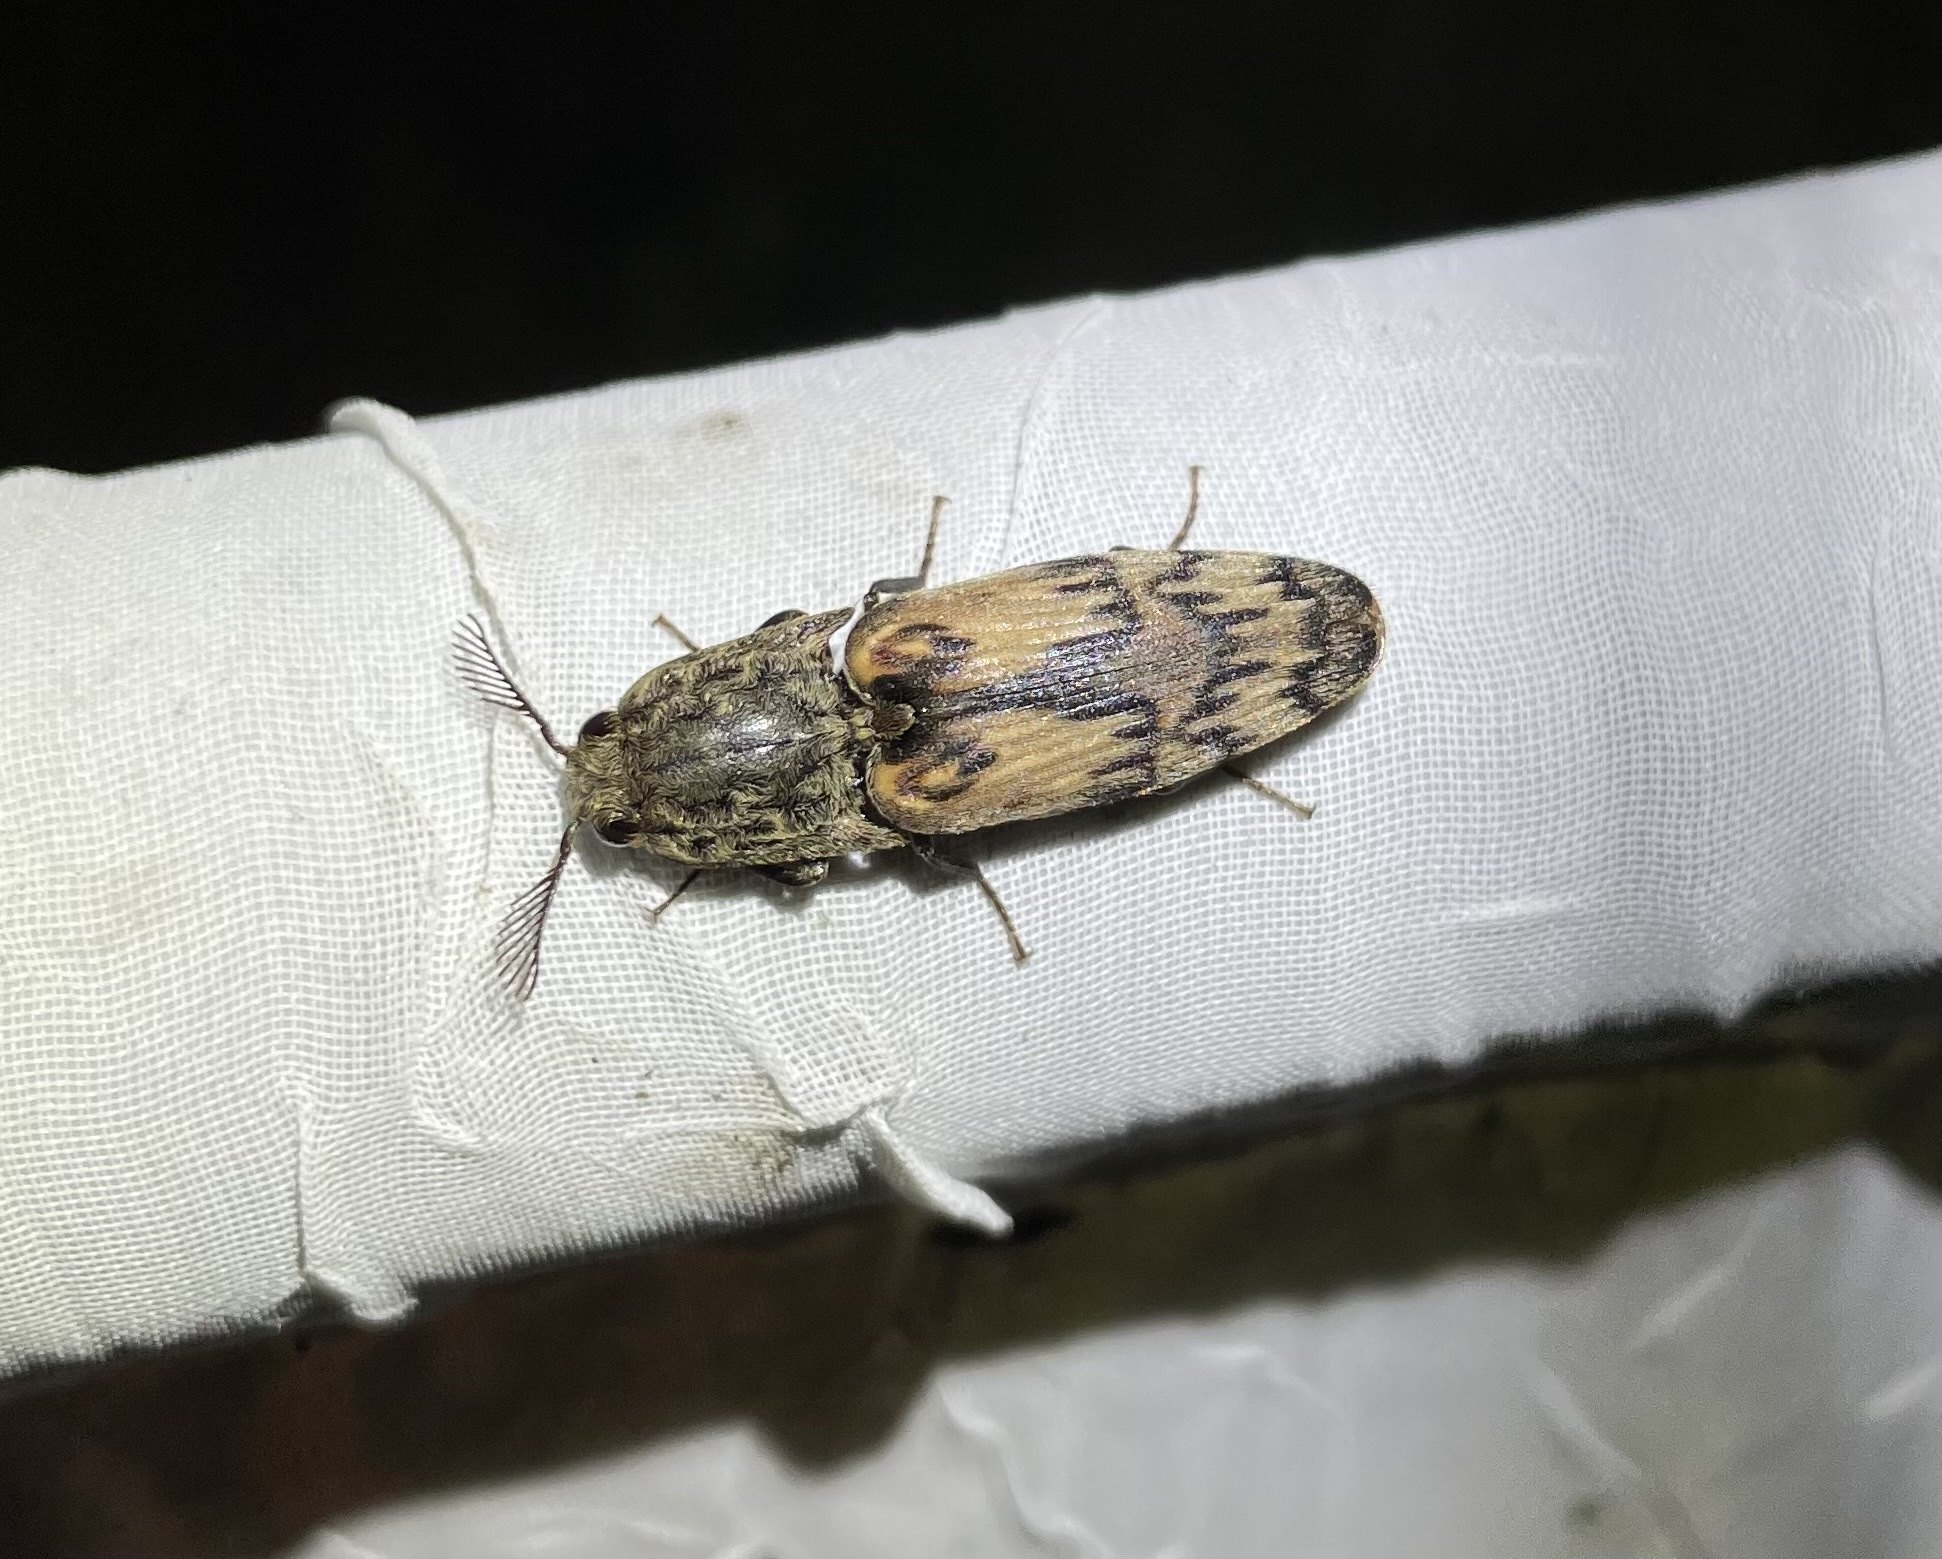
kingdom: Animalia
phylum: Arthropoda
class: Insecta
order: Coleoptera
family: Elateridae
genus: Pherhimius
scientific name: Pherhimius fascicularis
